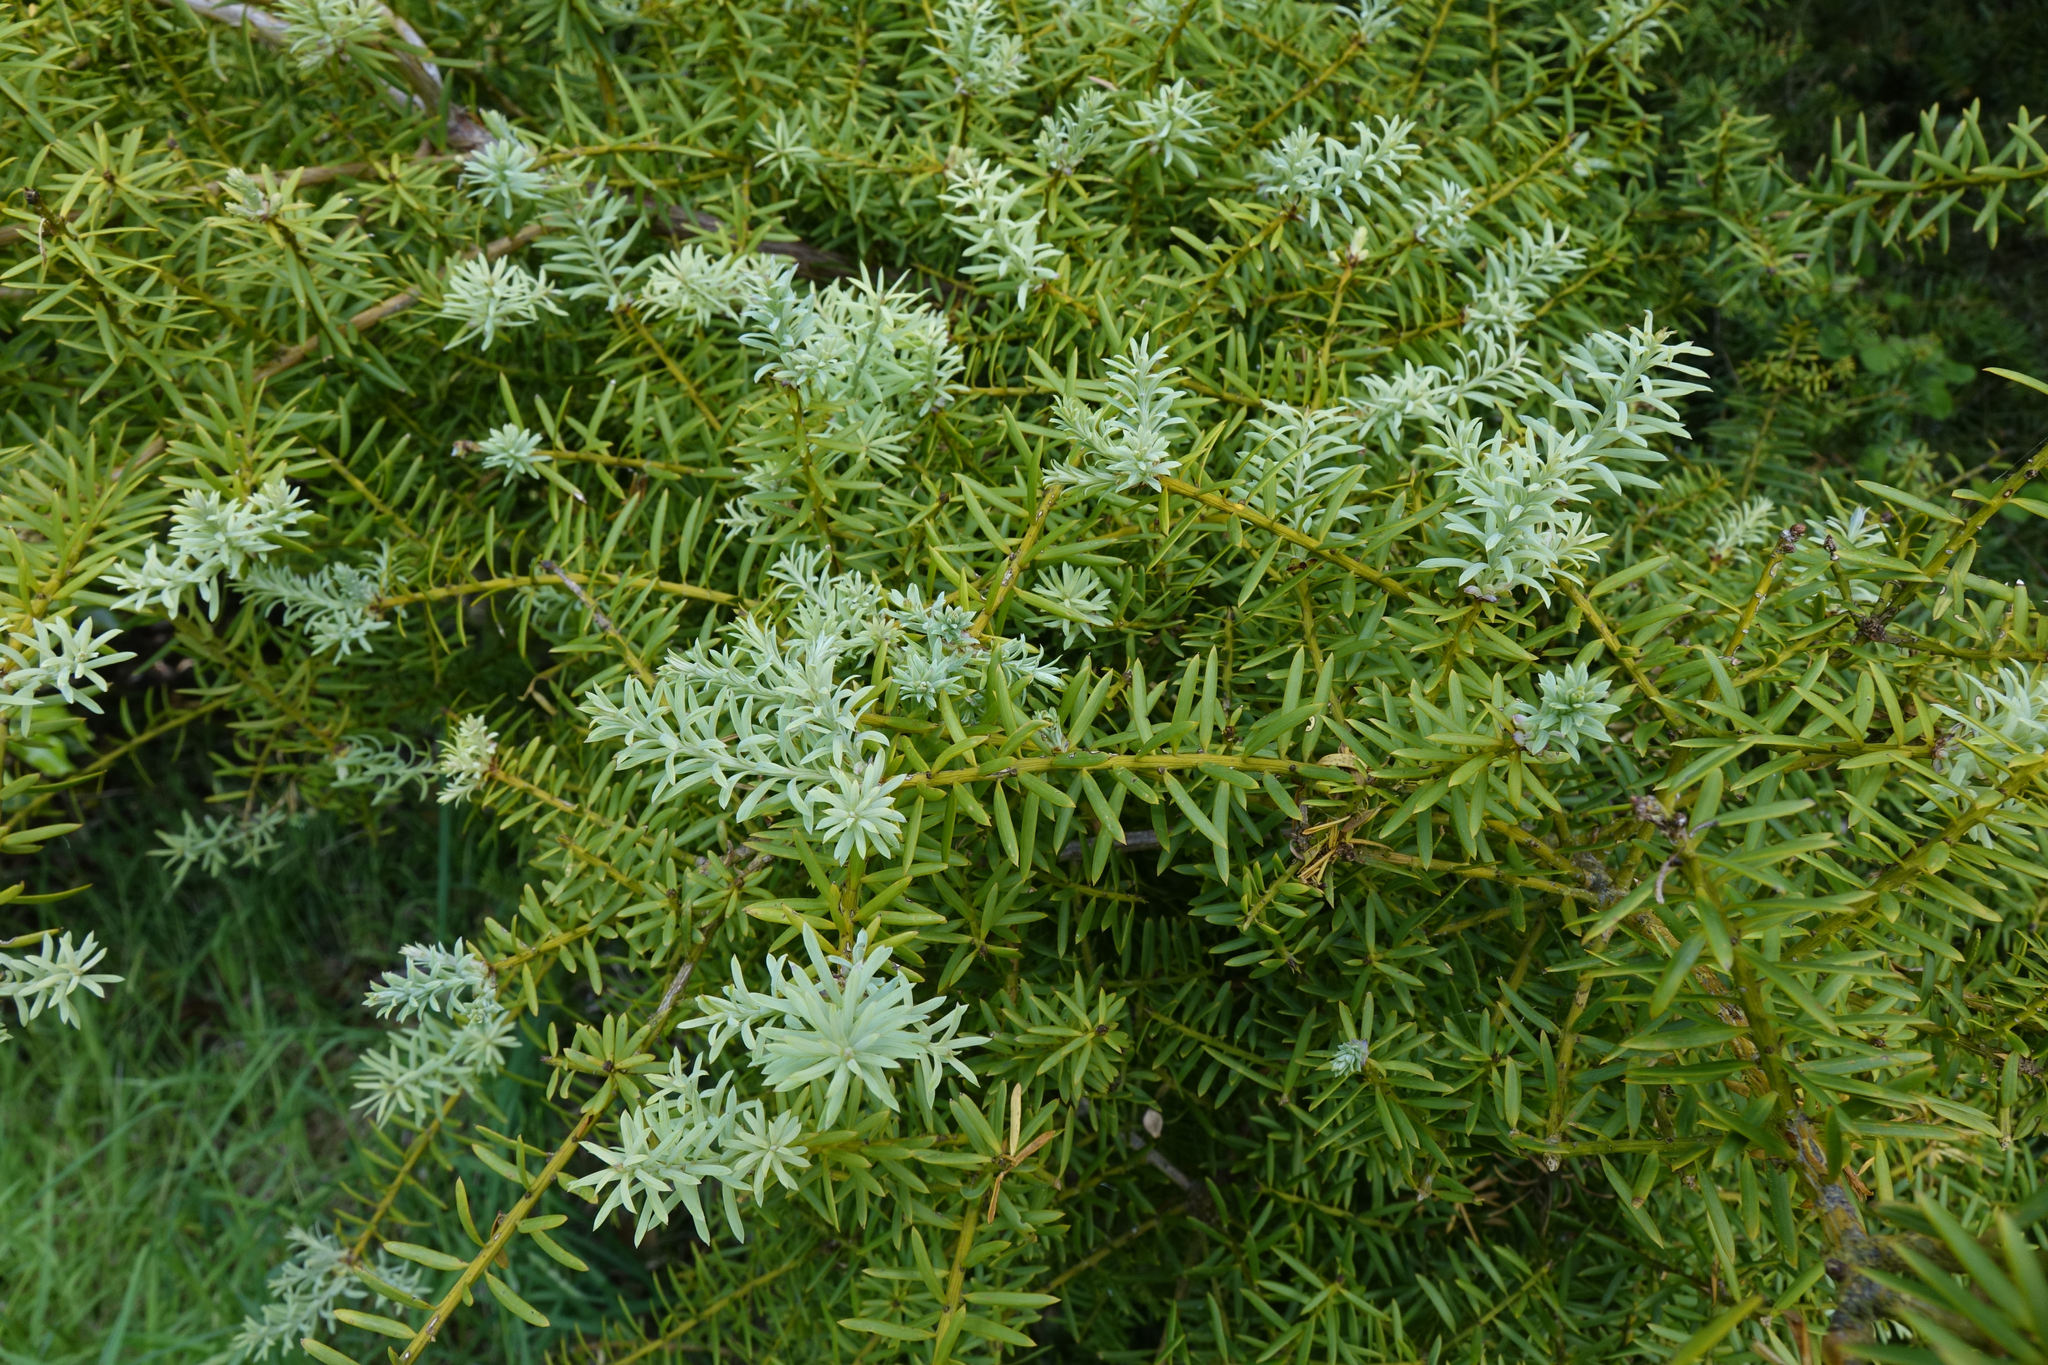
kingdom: Plantae
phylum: Tracheophyta
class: Pinopsida
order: Pinales
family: Podocarpaceae
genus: Podocarpus
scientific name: Podocarpus totara
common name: Totara
